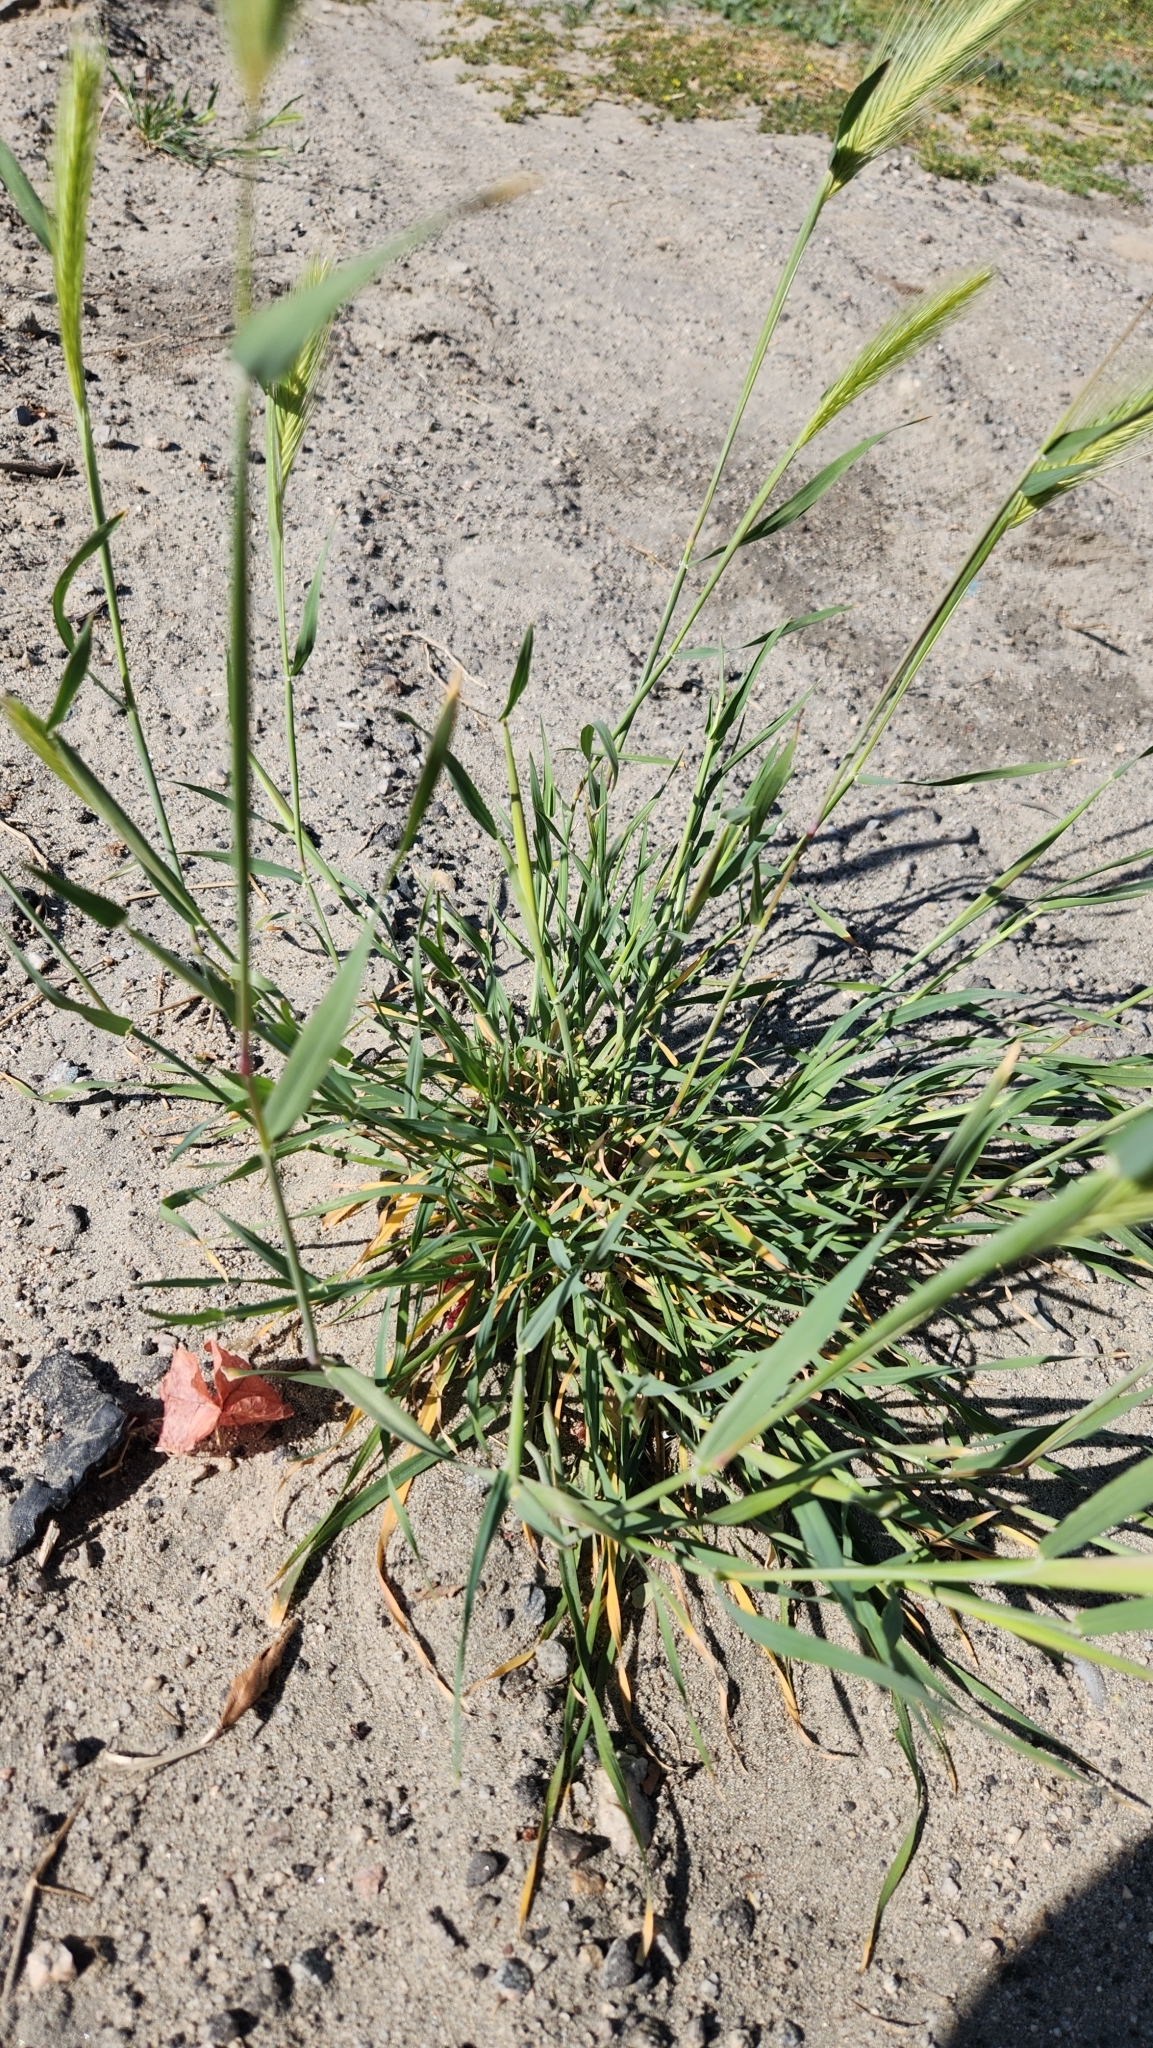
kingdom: Plantae
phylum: Tracheophyta
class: Liliopsida
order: Poales
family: Poaceae
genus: Hordeum
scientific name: Hordeum murinum
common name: Wall barley
